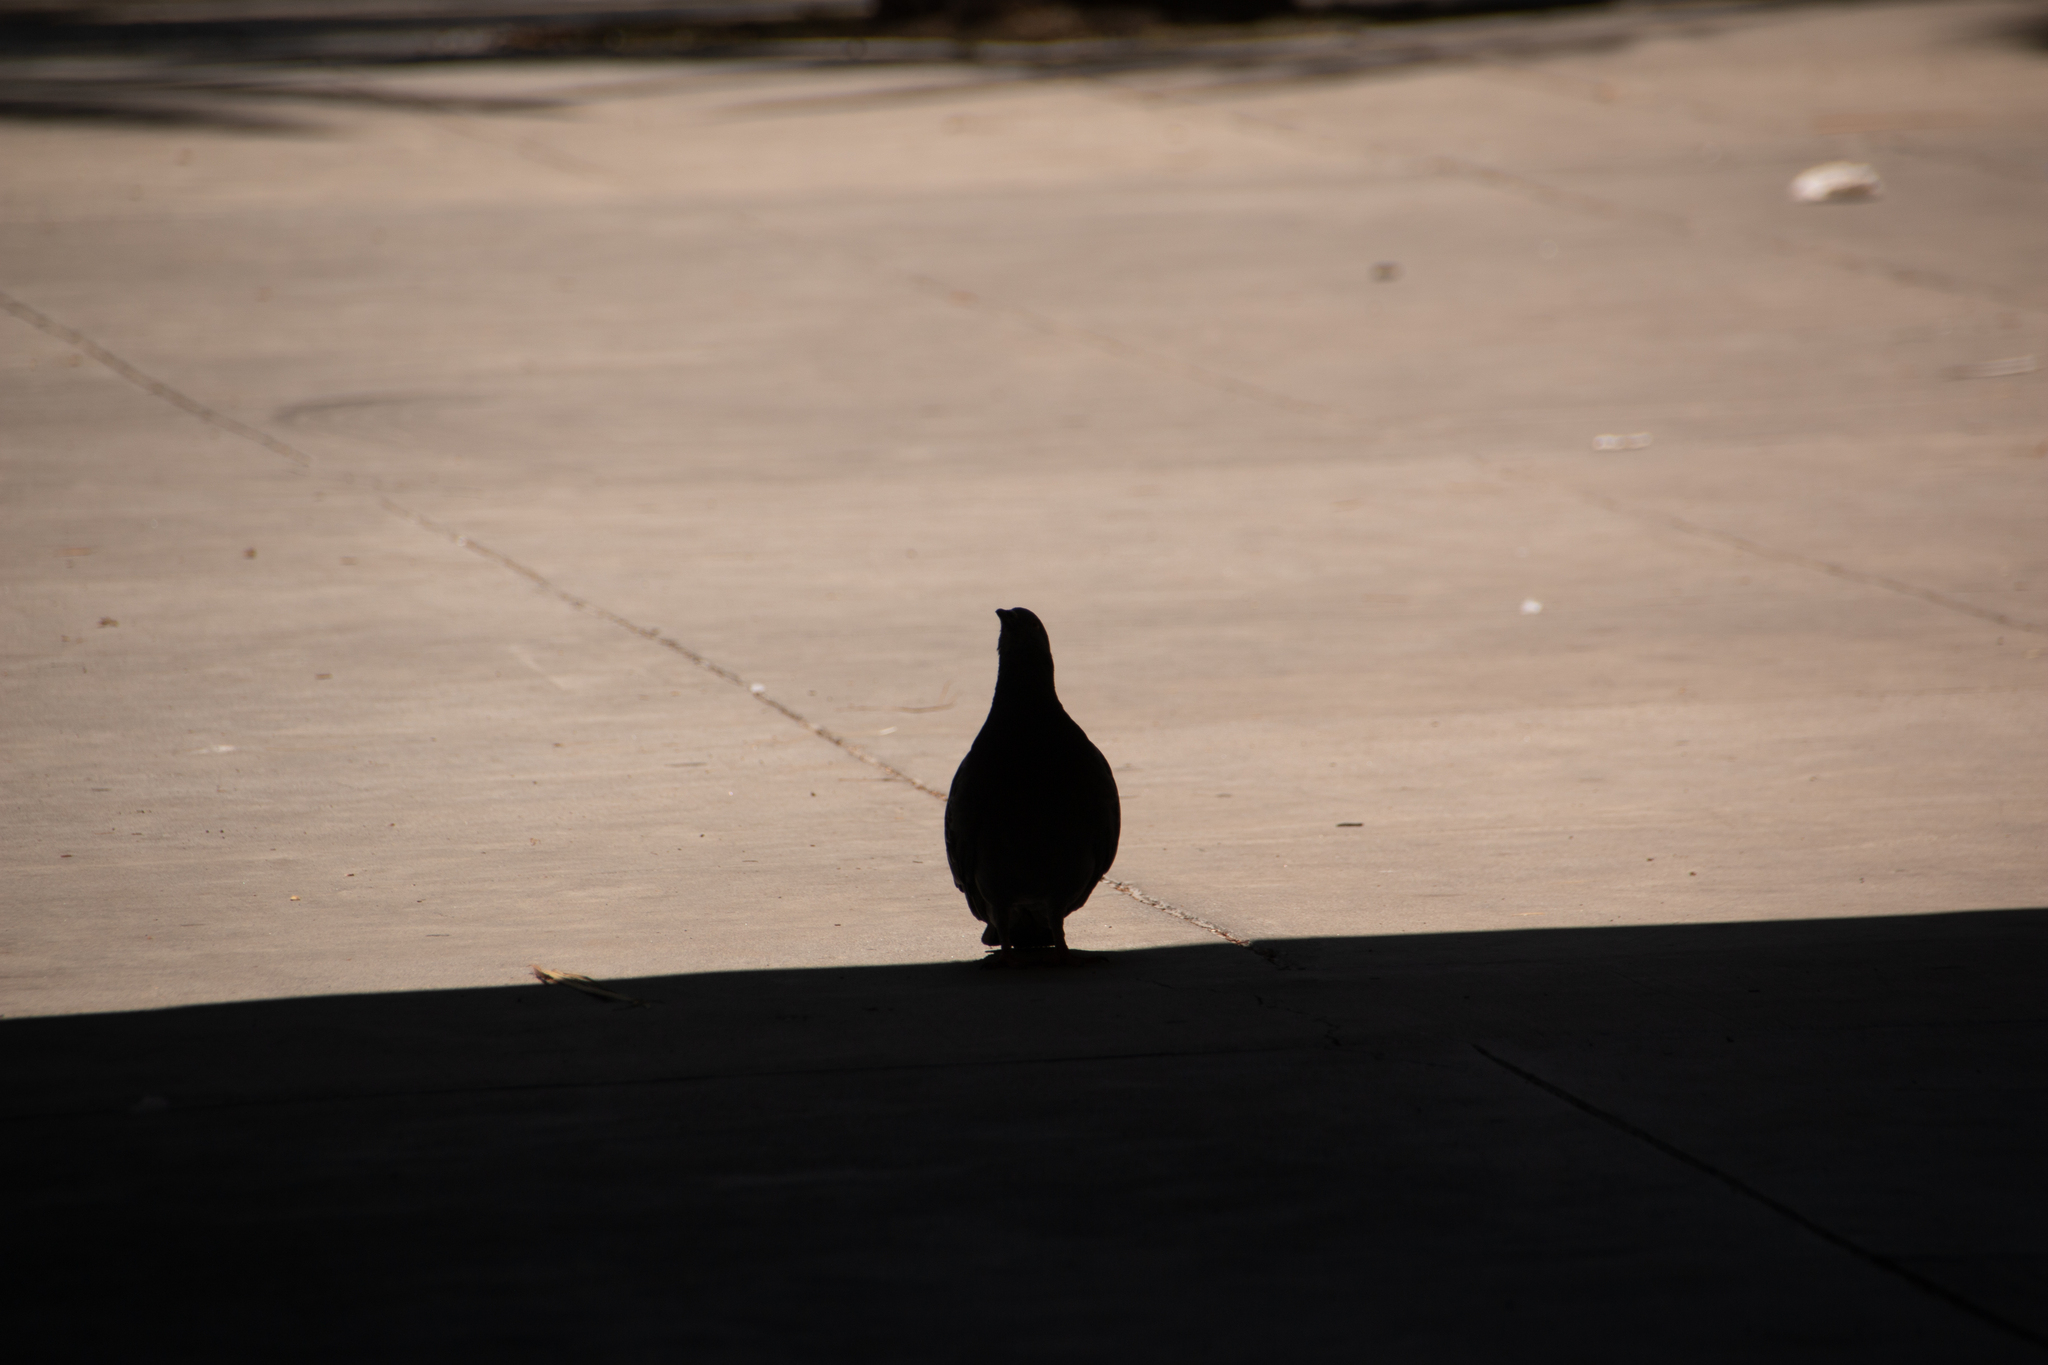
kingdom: Animalia
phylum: Chordata
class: Aves
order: Columbiformes
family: Columbidae
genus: Columba
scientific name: Columba livia
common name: Rock pigeon
